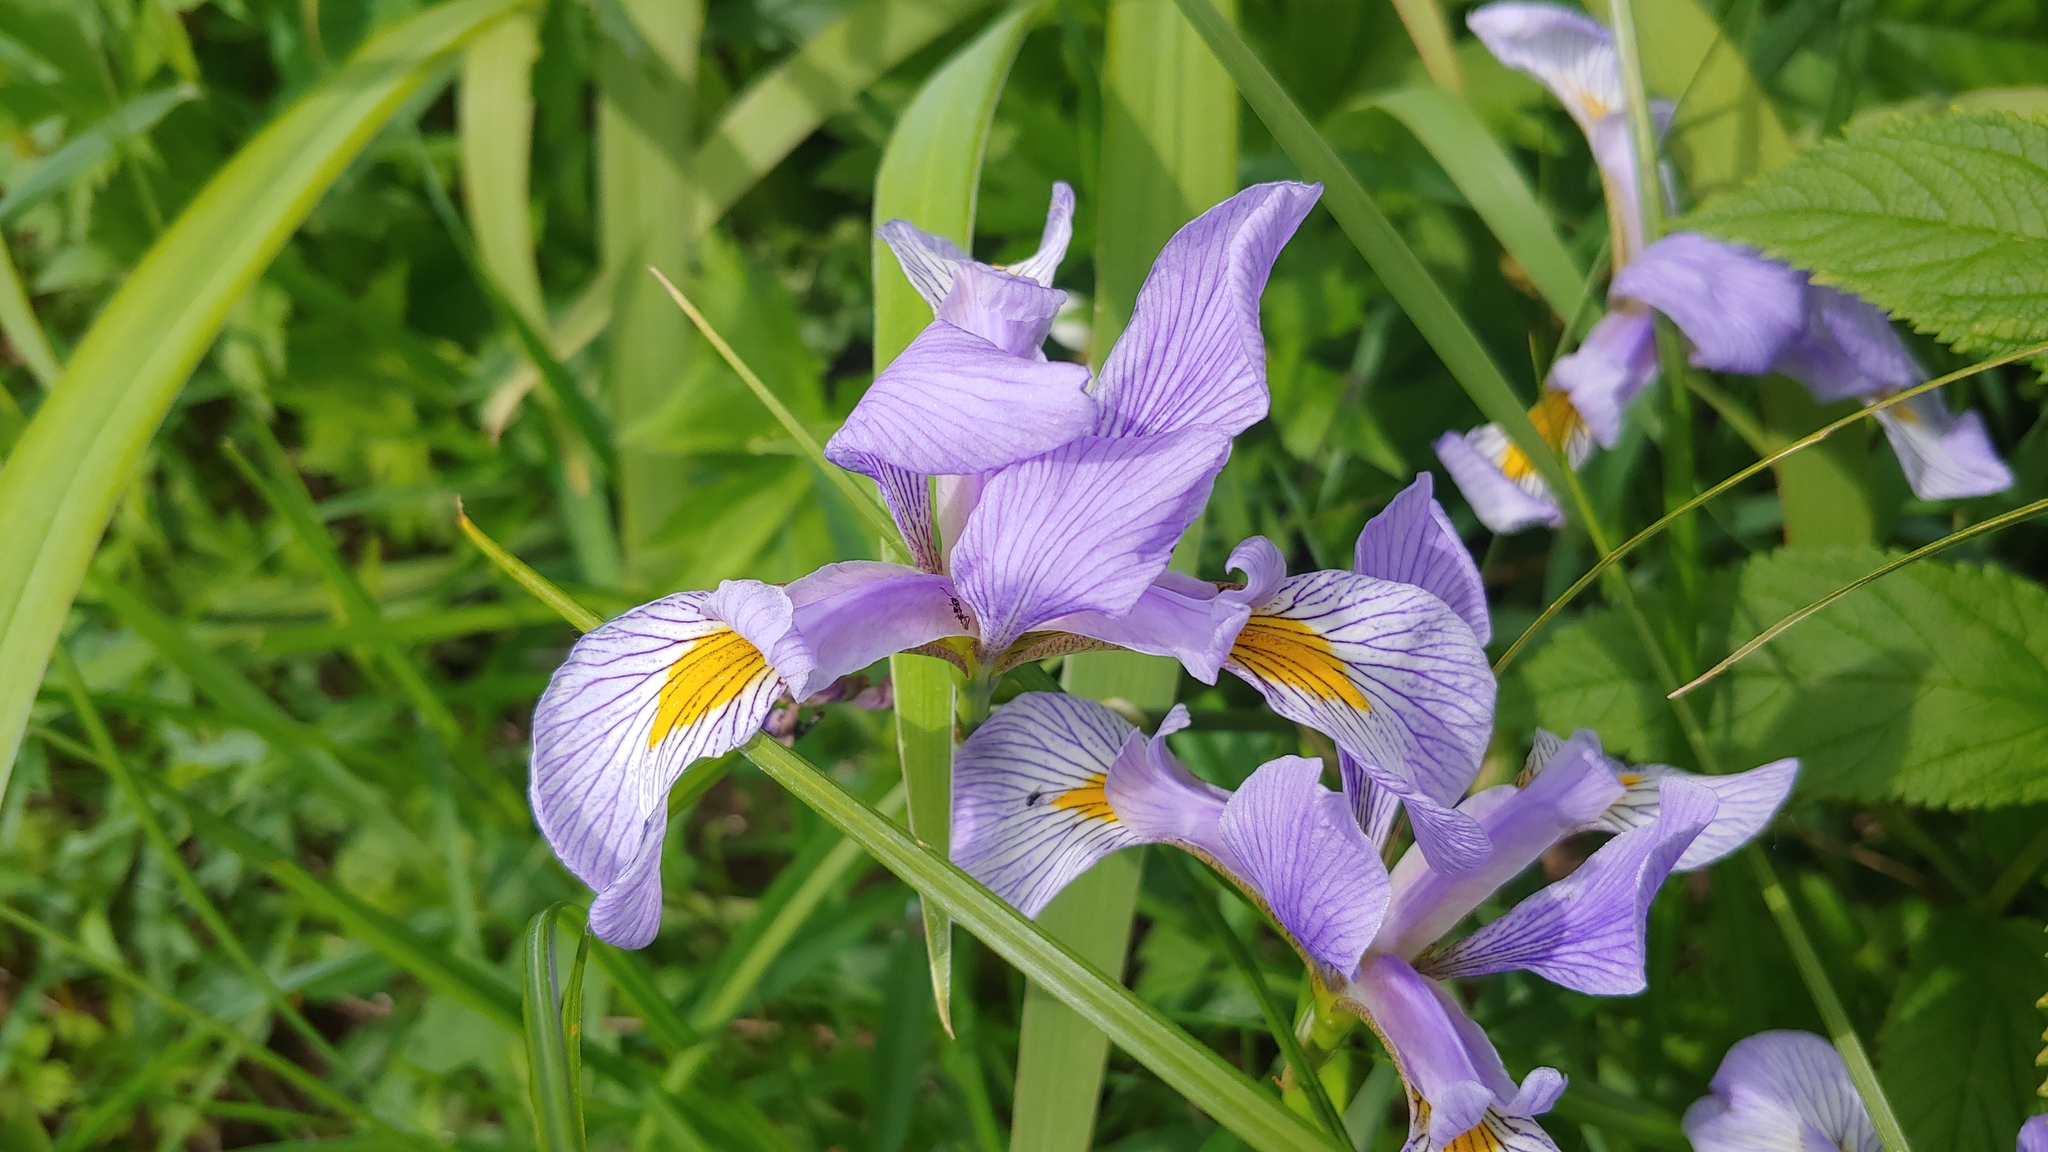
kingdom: Plantae
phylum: Tracheophyta
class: Liliopsida
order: Asparagales
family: Iridaceae
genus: Iris
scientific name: Iris virginica
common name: Southern blue flag
